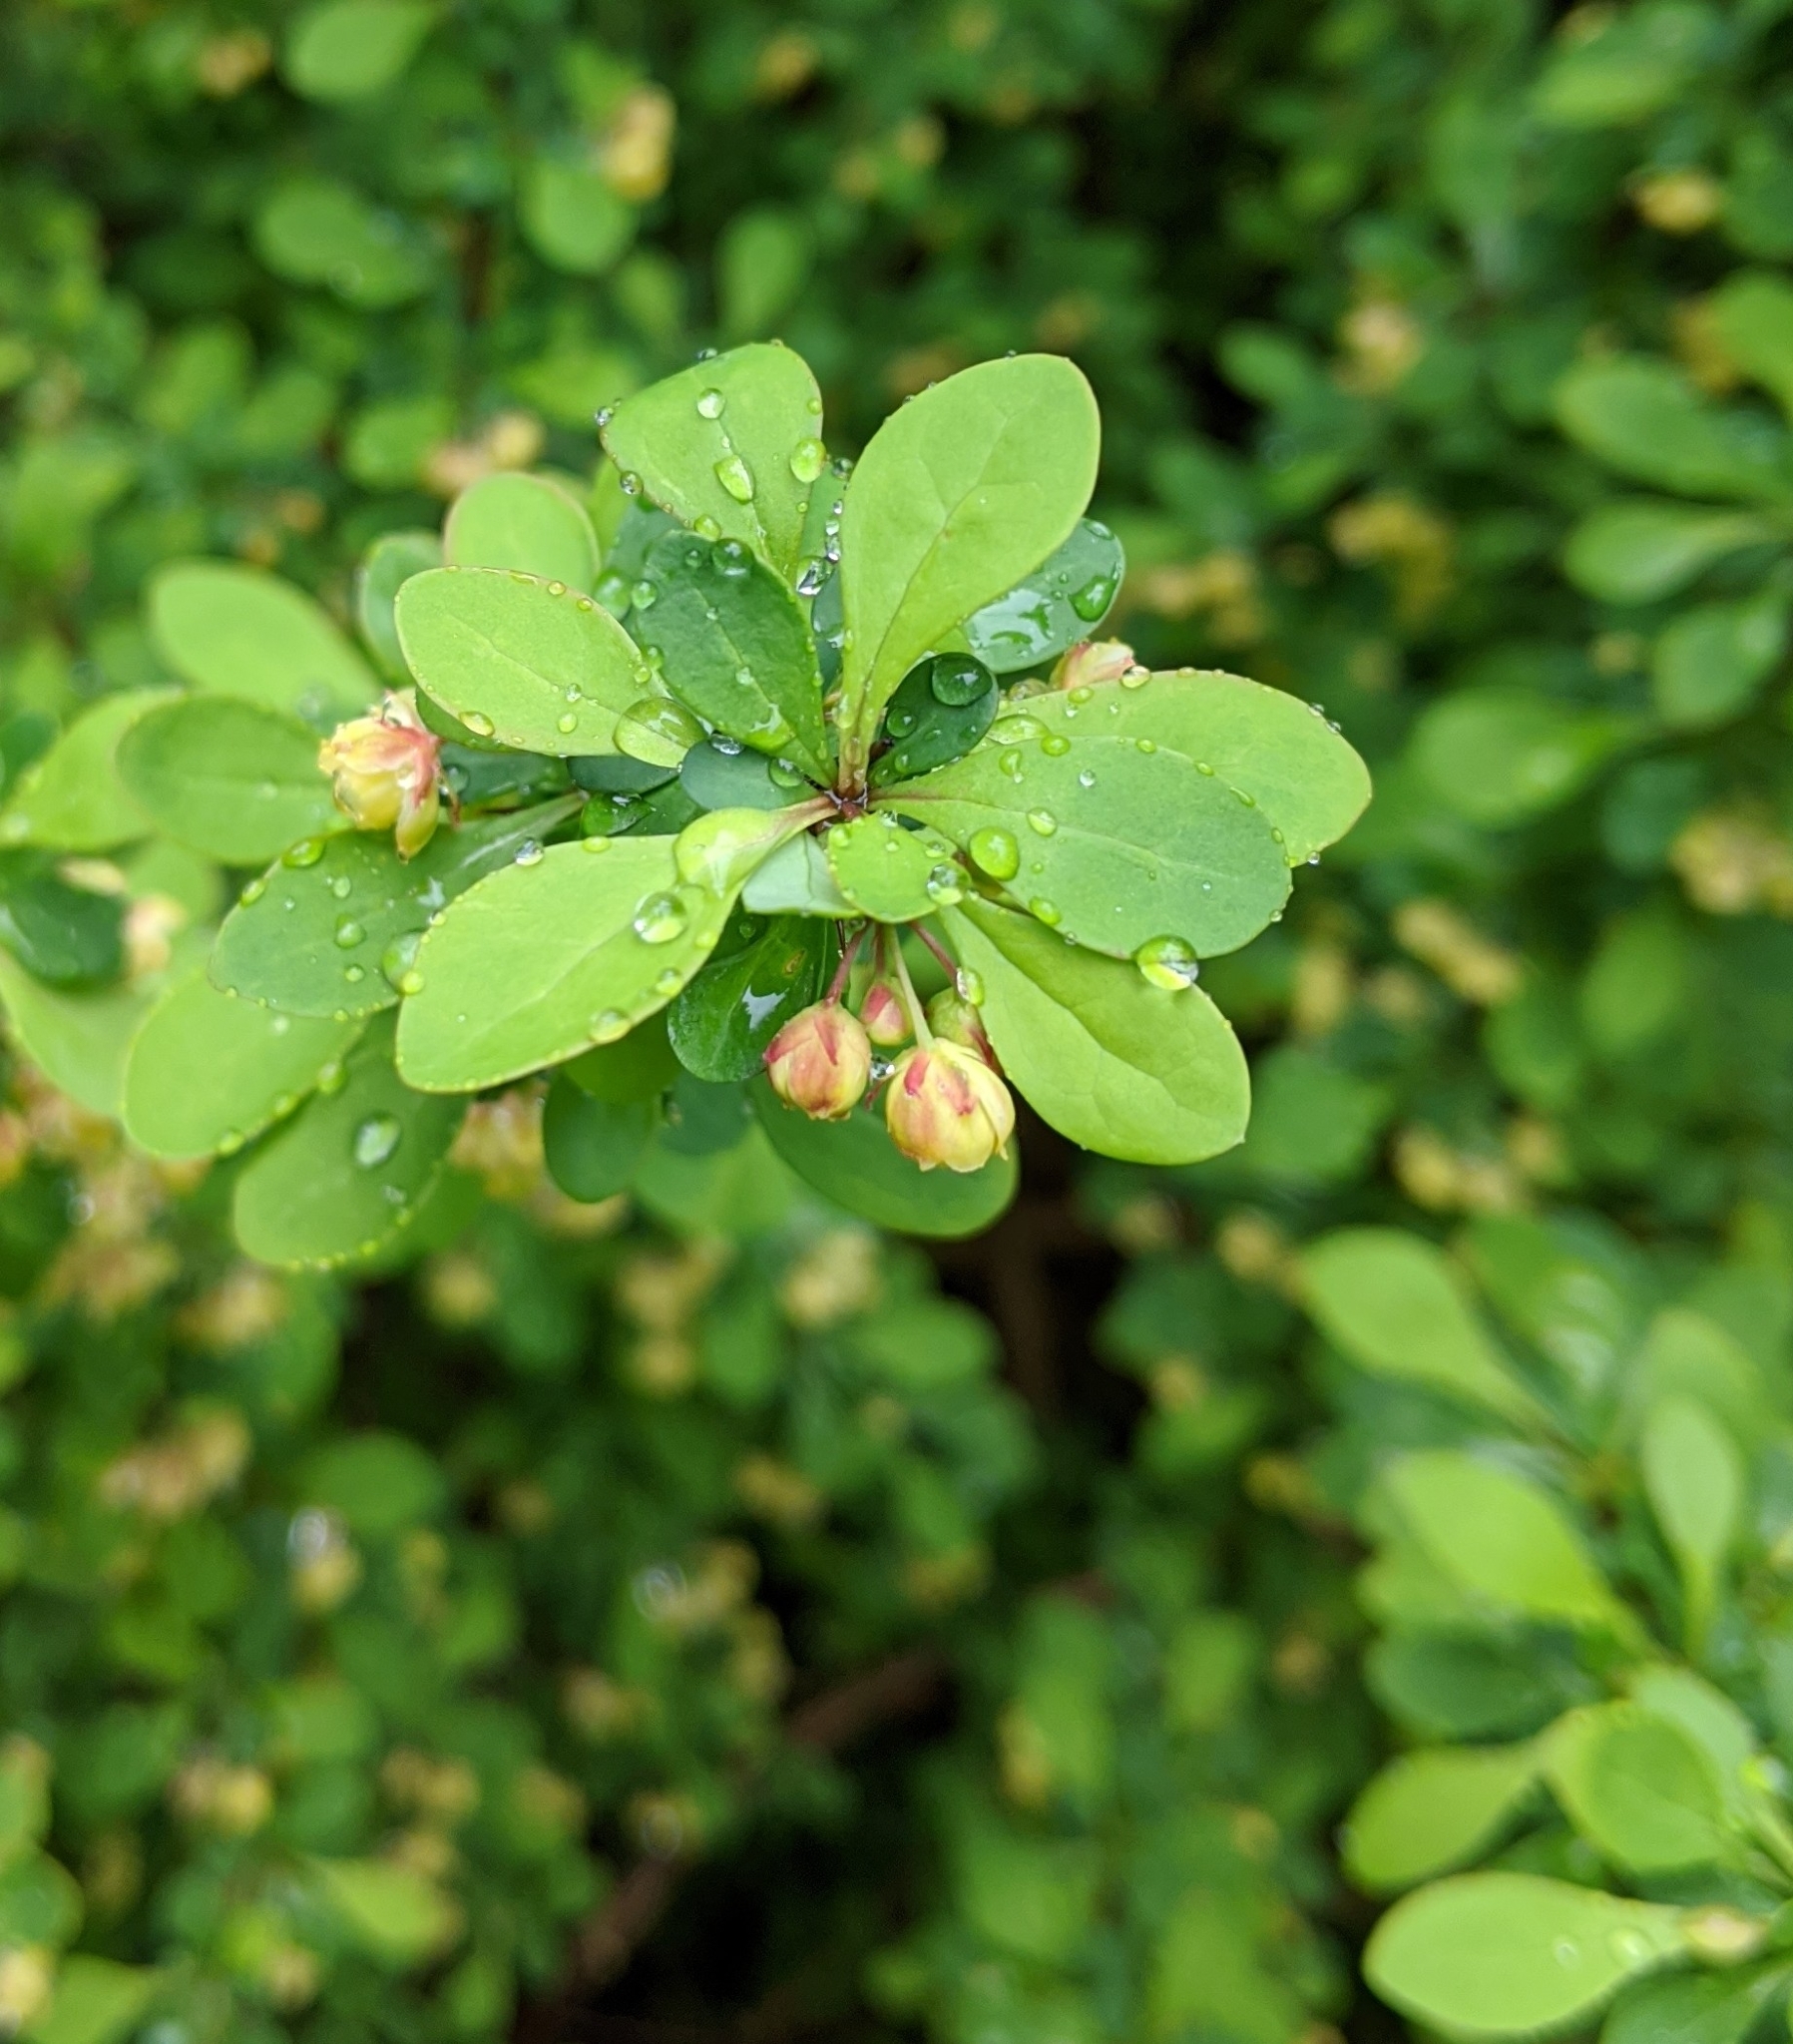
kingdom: Plantae
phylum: Tracheophyta
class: Magnoliopsida
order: Ranunculales
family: Berberidaceae
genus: Berberis
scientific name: Berberis thunbergii
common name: Japanese barberry
